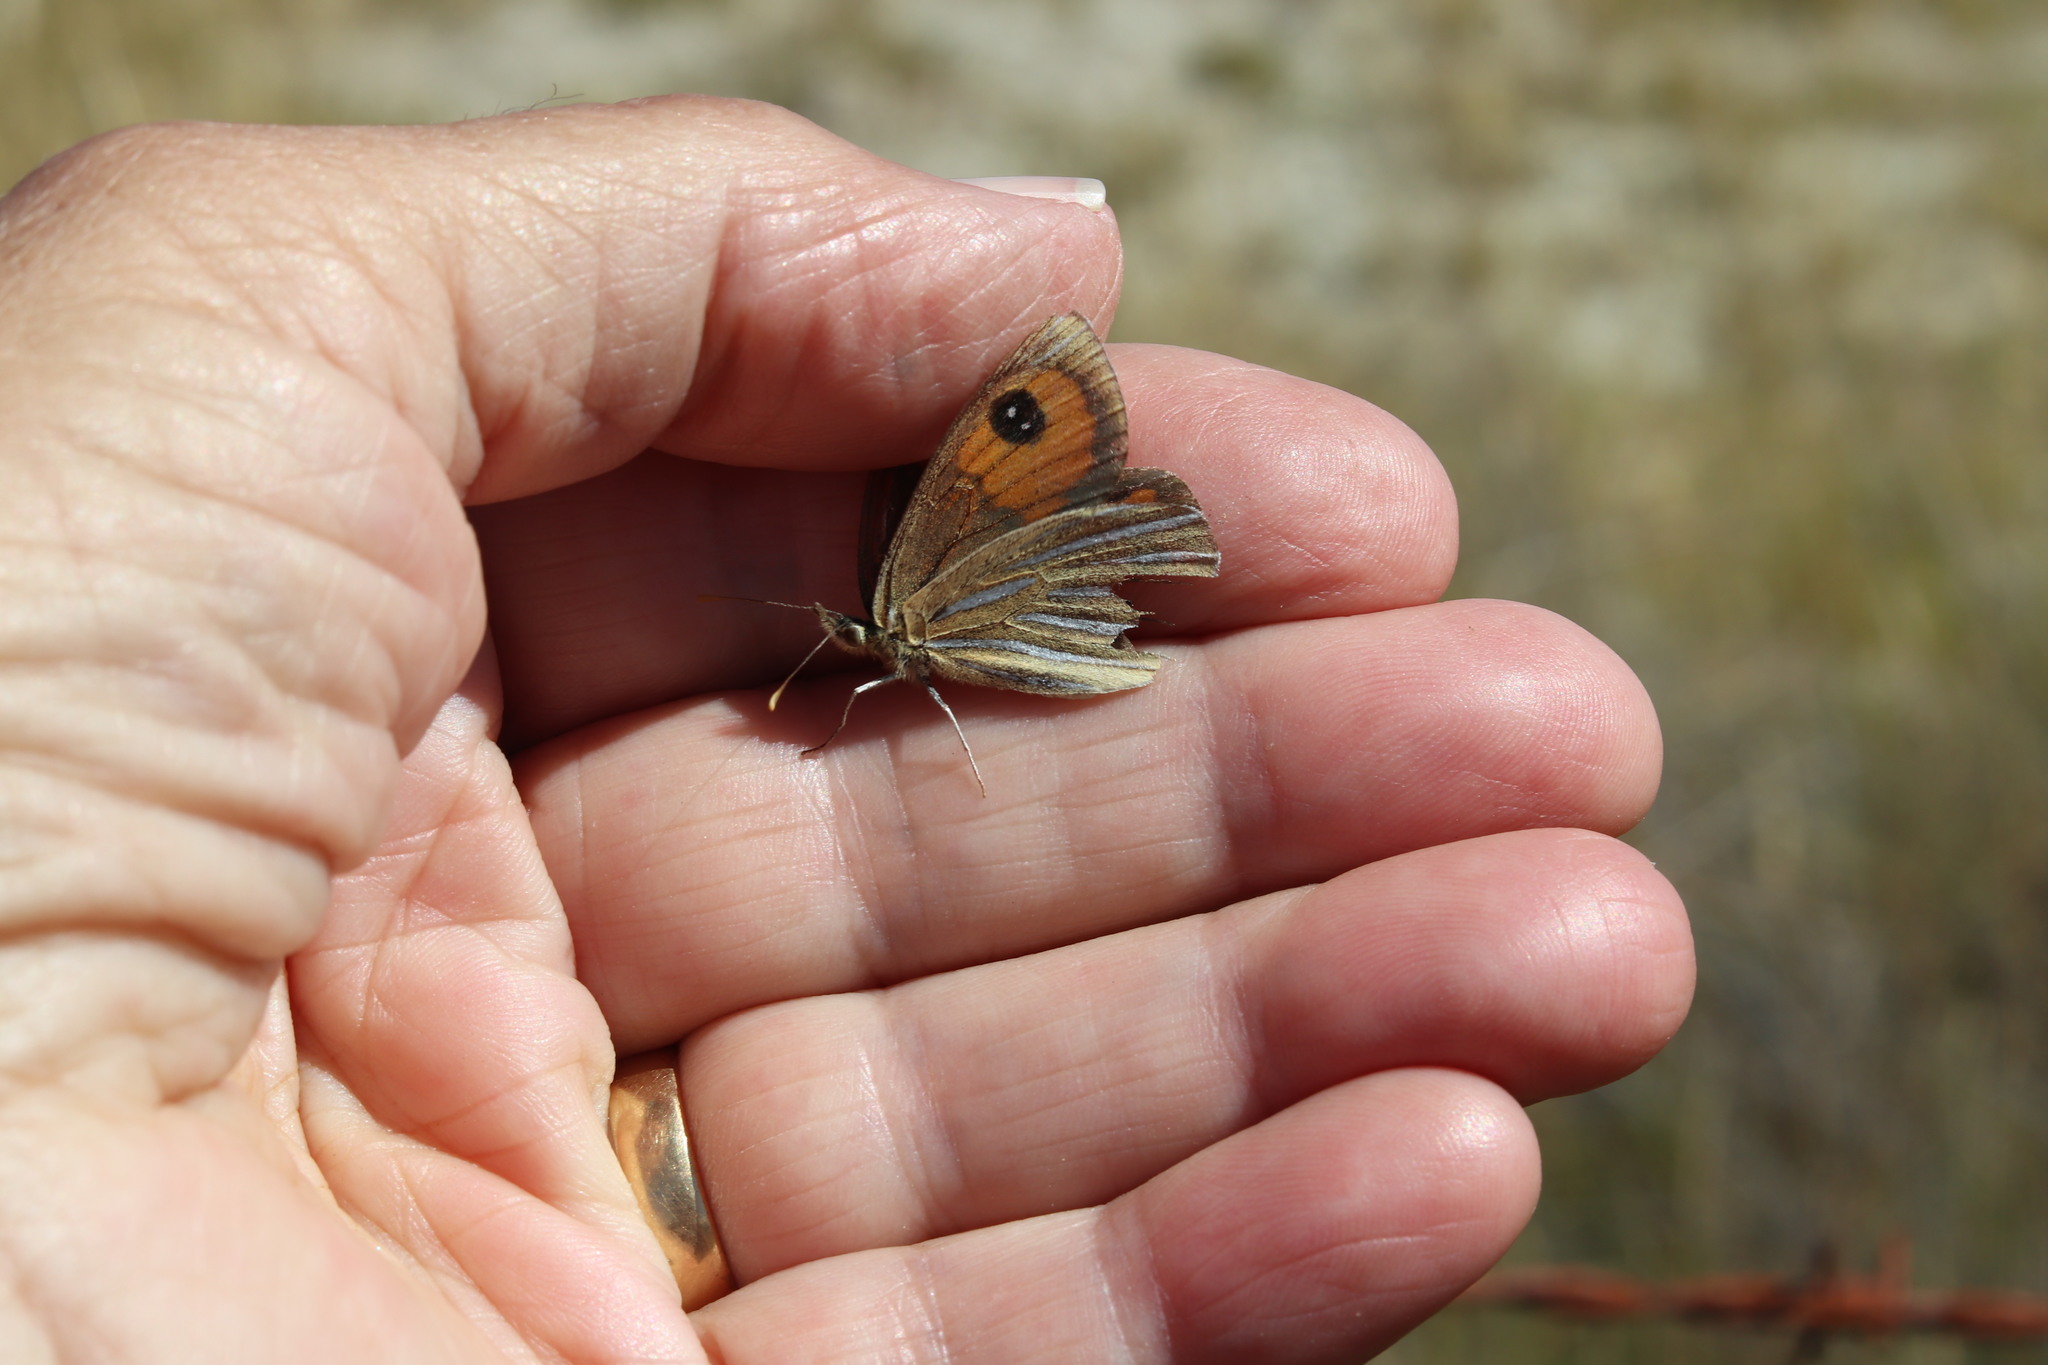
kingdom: Animalia
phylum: Arthropoda
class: Insecta
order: Lepidoptera
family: Nymphalidae
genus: Argyrophenga
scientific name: Argyrophenga antipodum
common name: Common tussock butterfly
